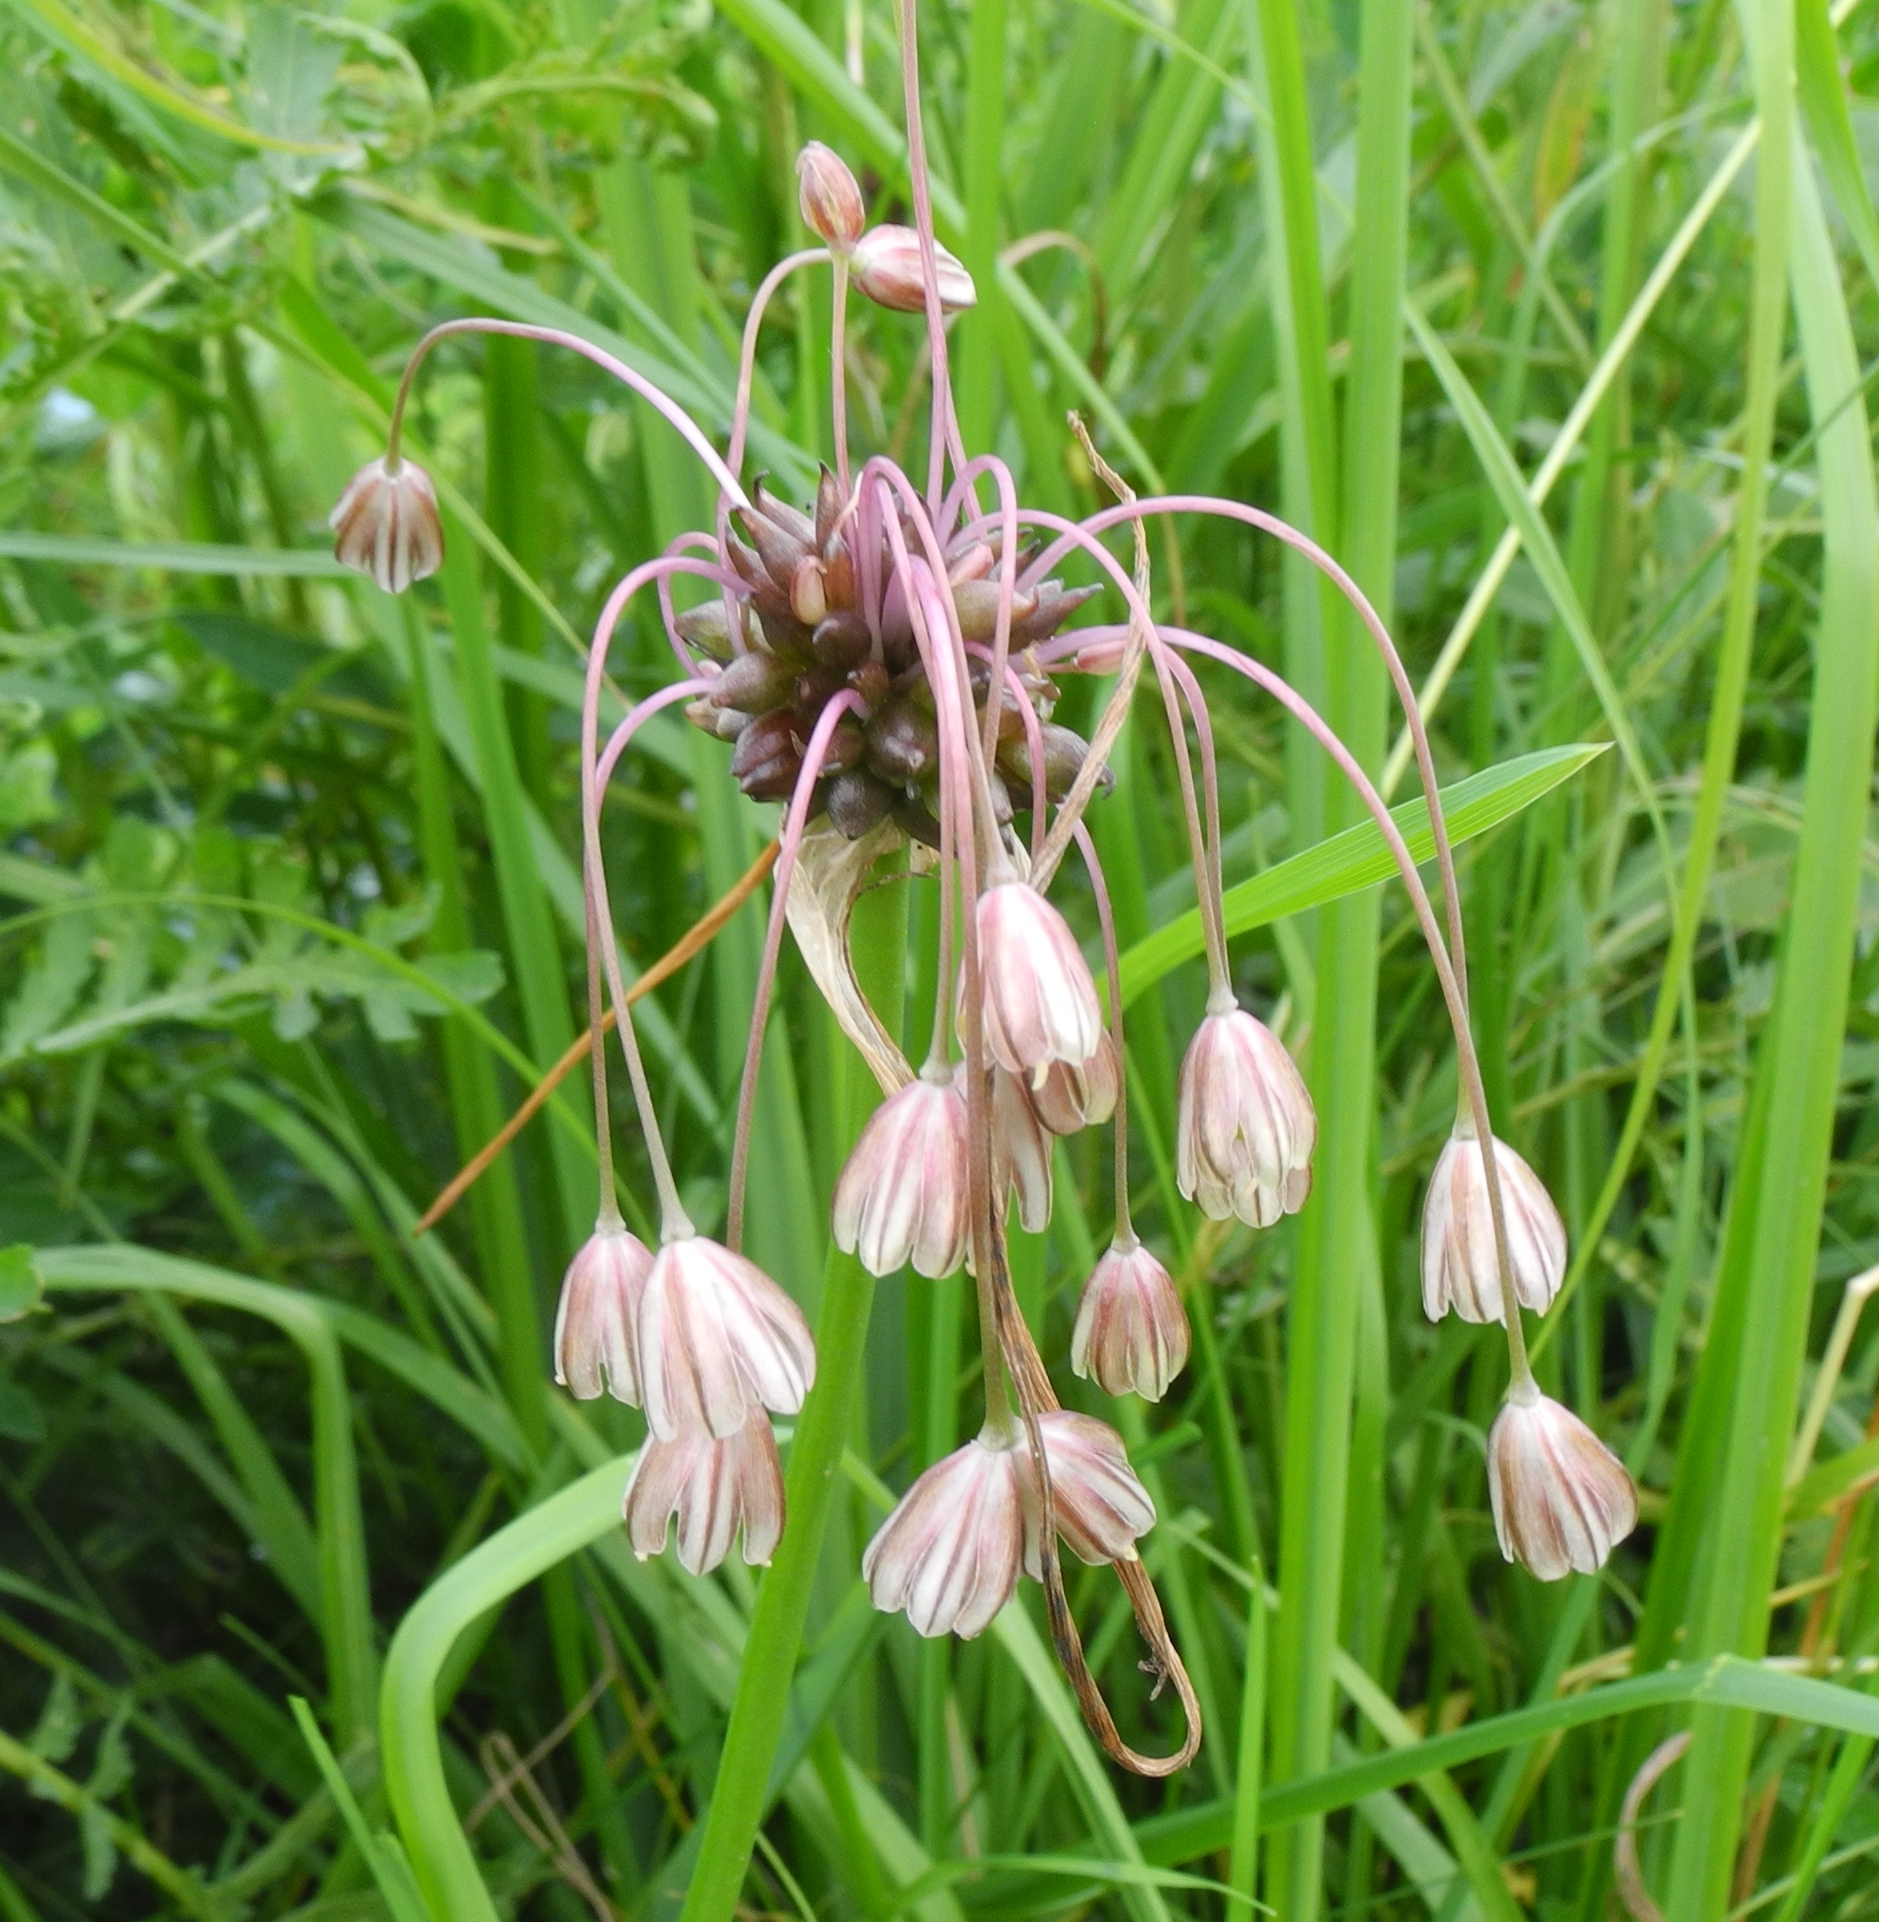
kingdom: Plantae
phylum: Tracheophyta
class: Liliopsida
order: Asparagales
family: Amaryllidaceae
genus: Allium
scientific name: Allium oleraceum
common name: Field garlic
